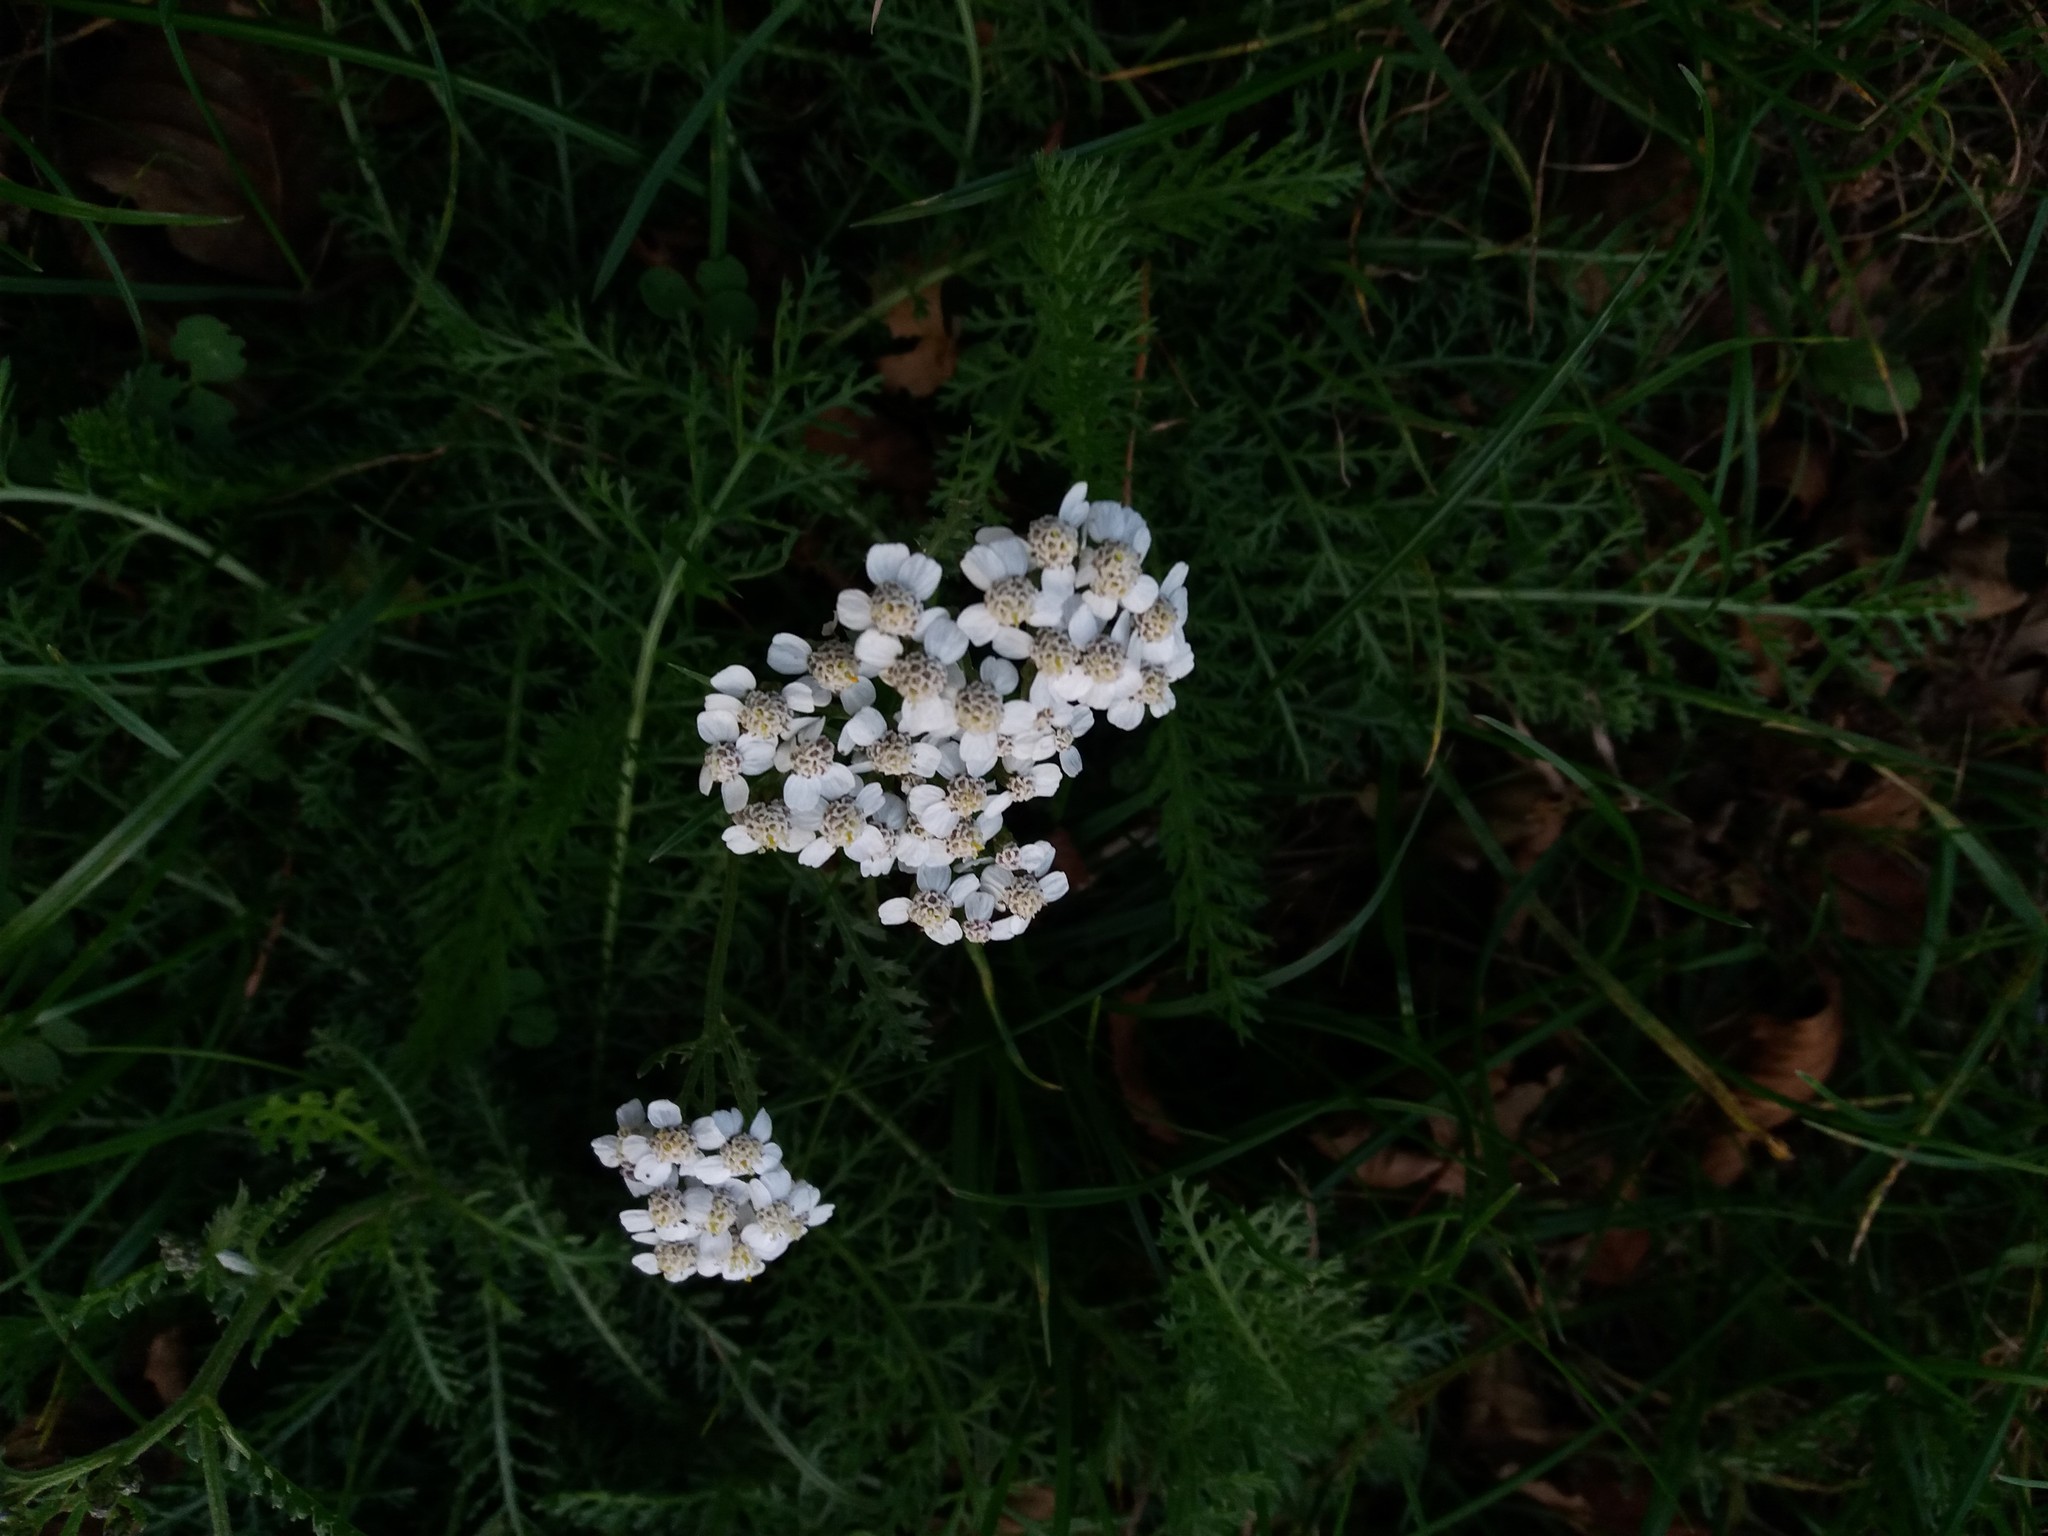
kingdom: Plantae
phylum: Tracheophyta
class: Magnoliopsida
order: Asterales
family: Asteraceae
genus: Achillea
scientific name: Achillea millefolium
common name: Yarrow
